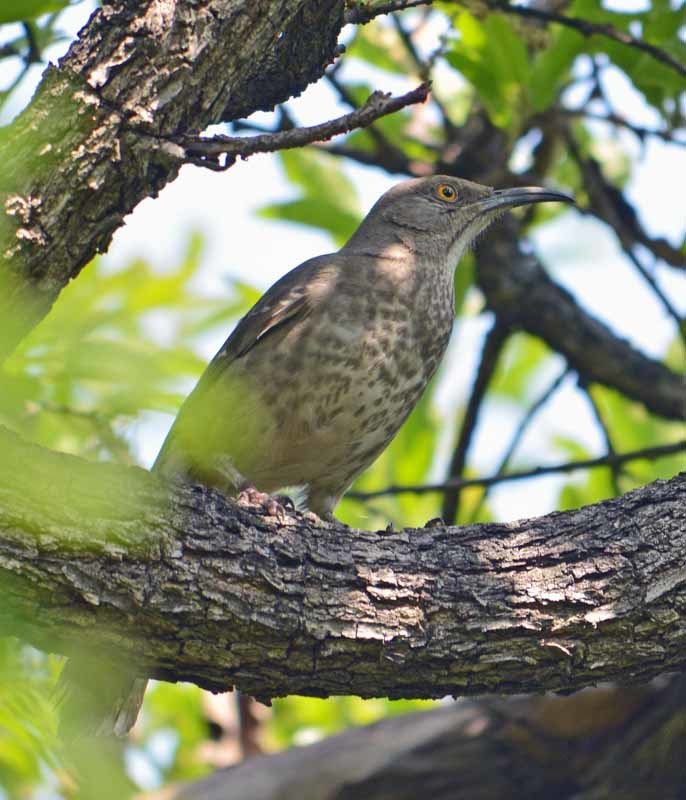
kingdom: Animalia
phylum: Chordata
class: Aves
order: Passeriformes
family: Mimidae
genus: Toxostoma
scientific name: Toxostoma curvirostre
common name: Curve-billed thrasher
